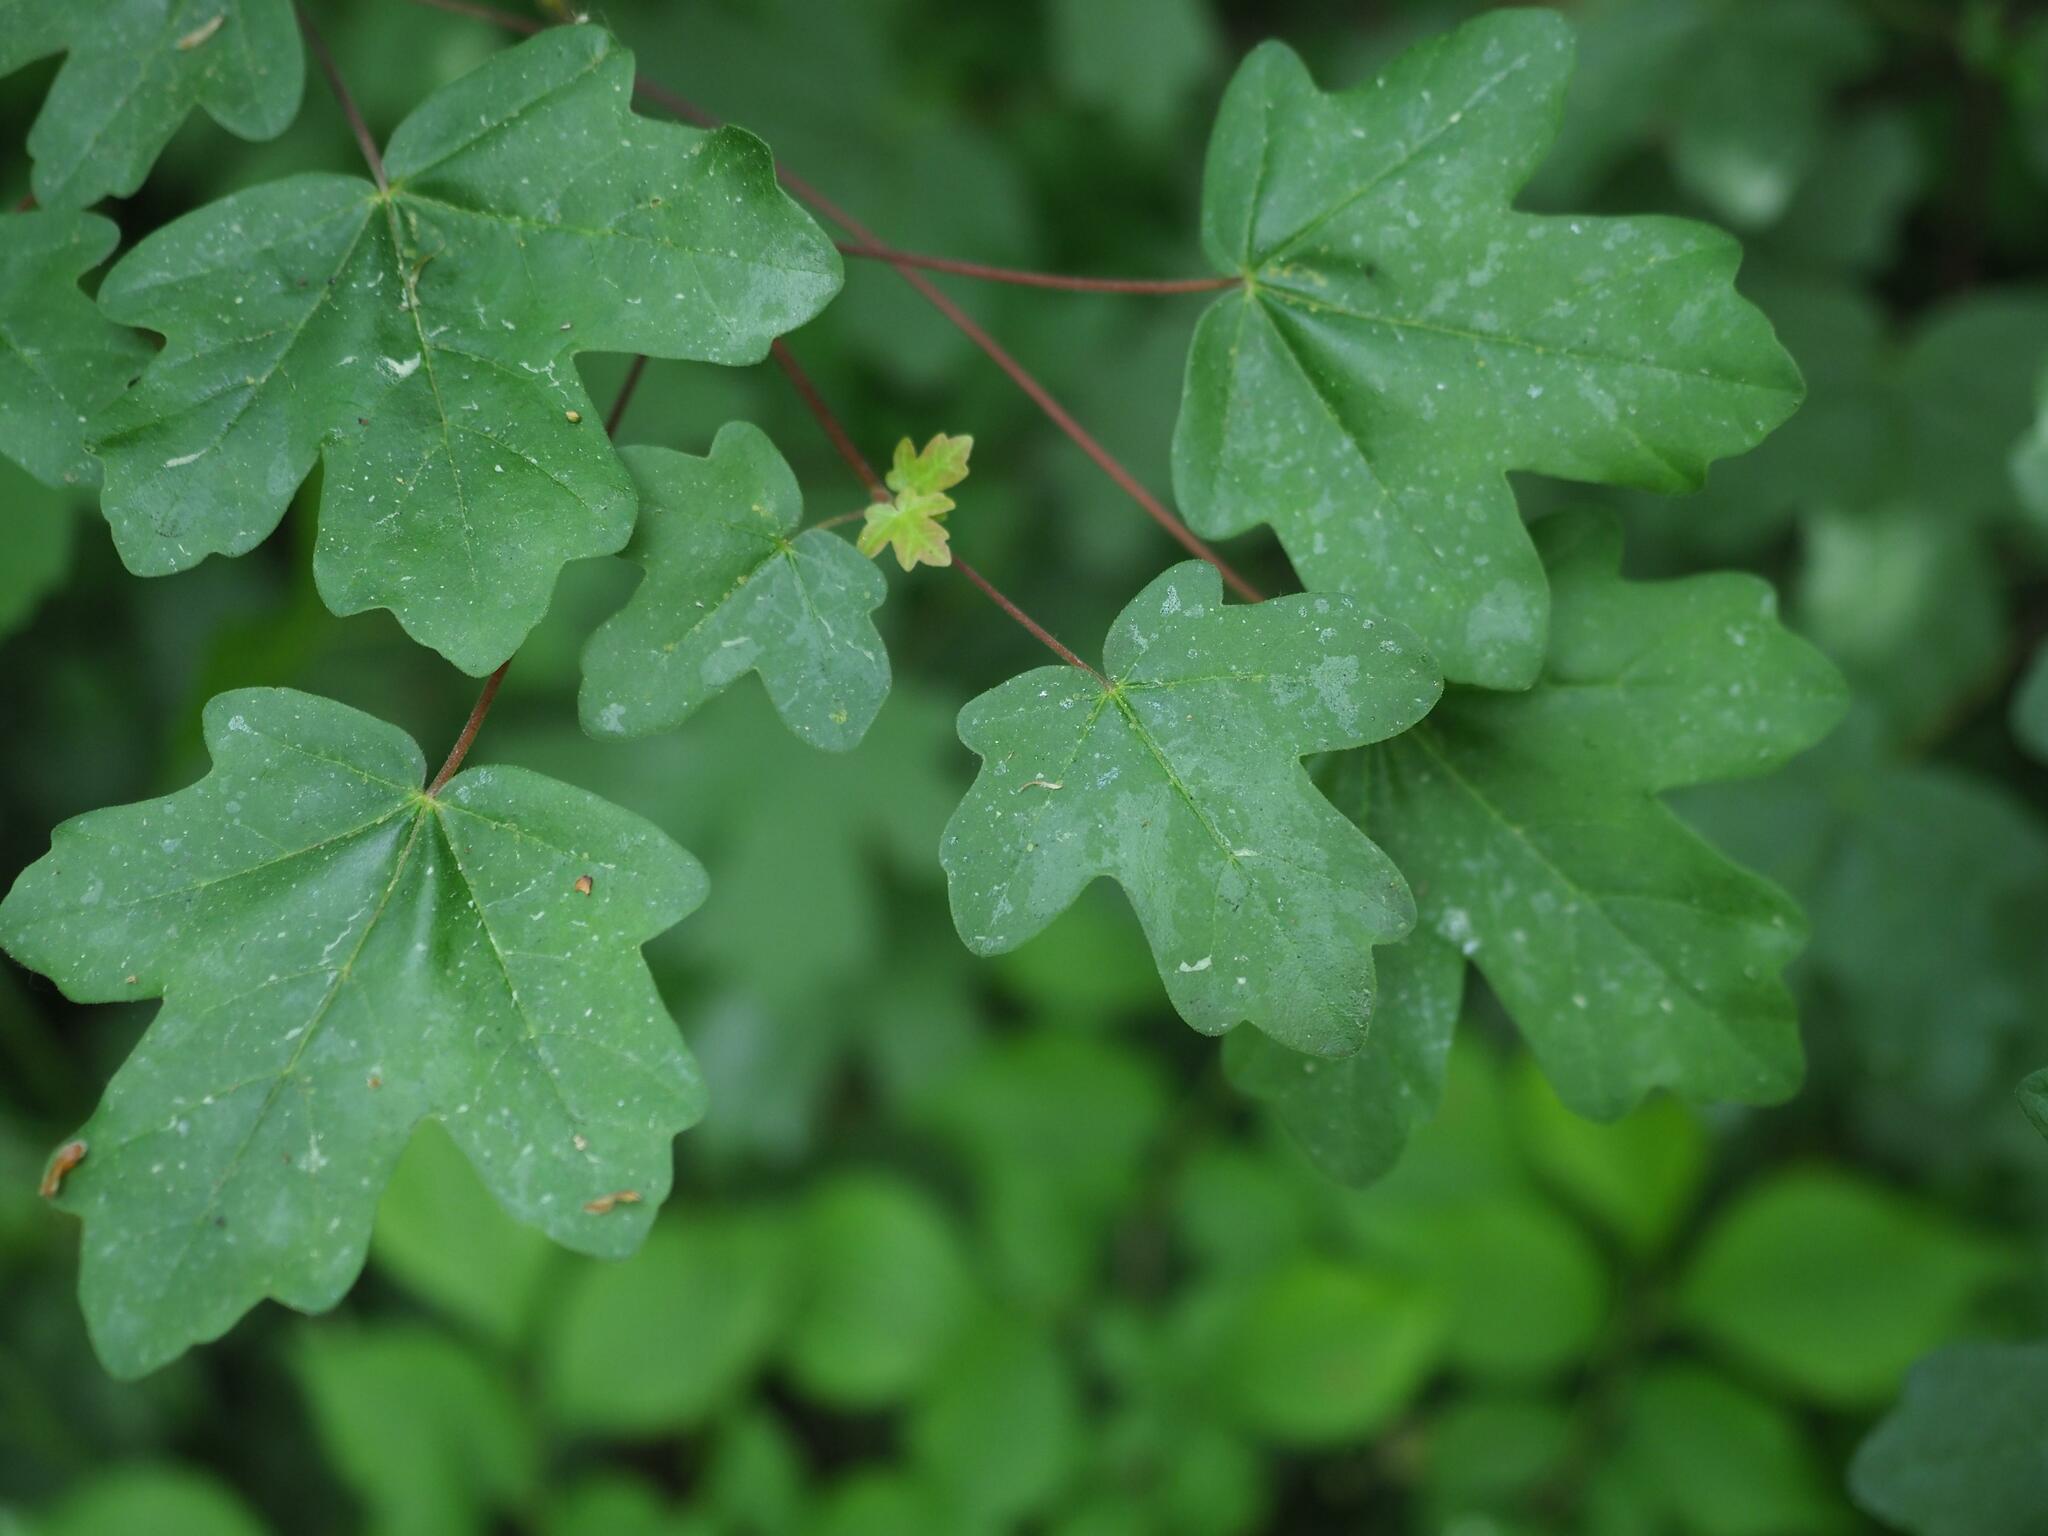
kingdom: Plantae
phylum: Tracheophyta
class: Magnoliopsida
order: Sapindales
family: Sapindaceae
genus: Acer
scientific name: Acer campestre
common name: Field maple
